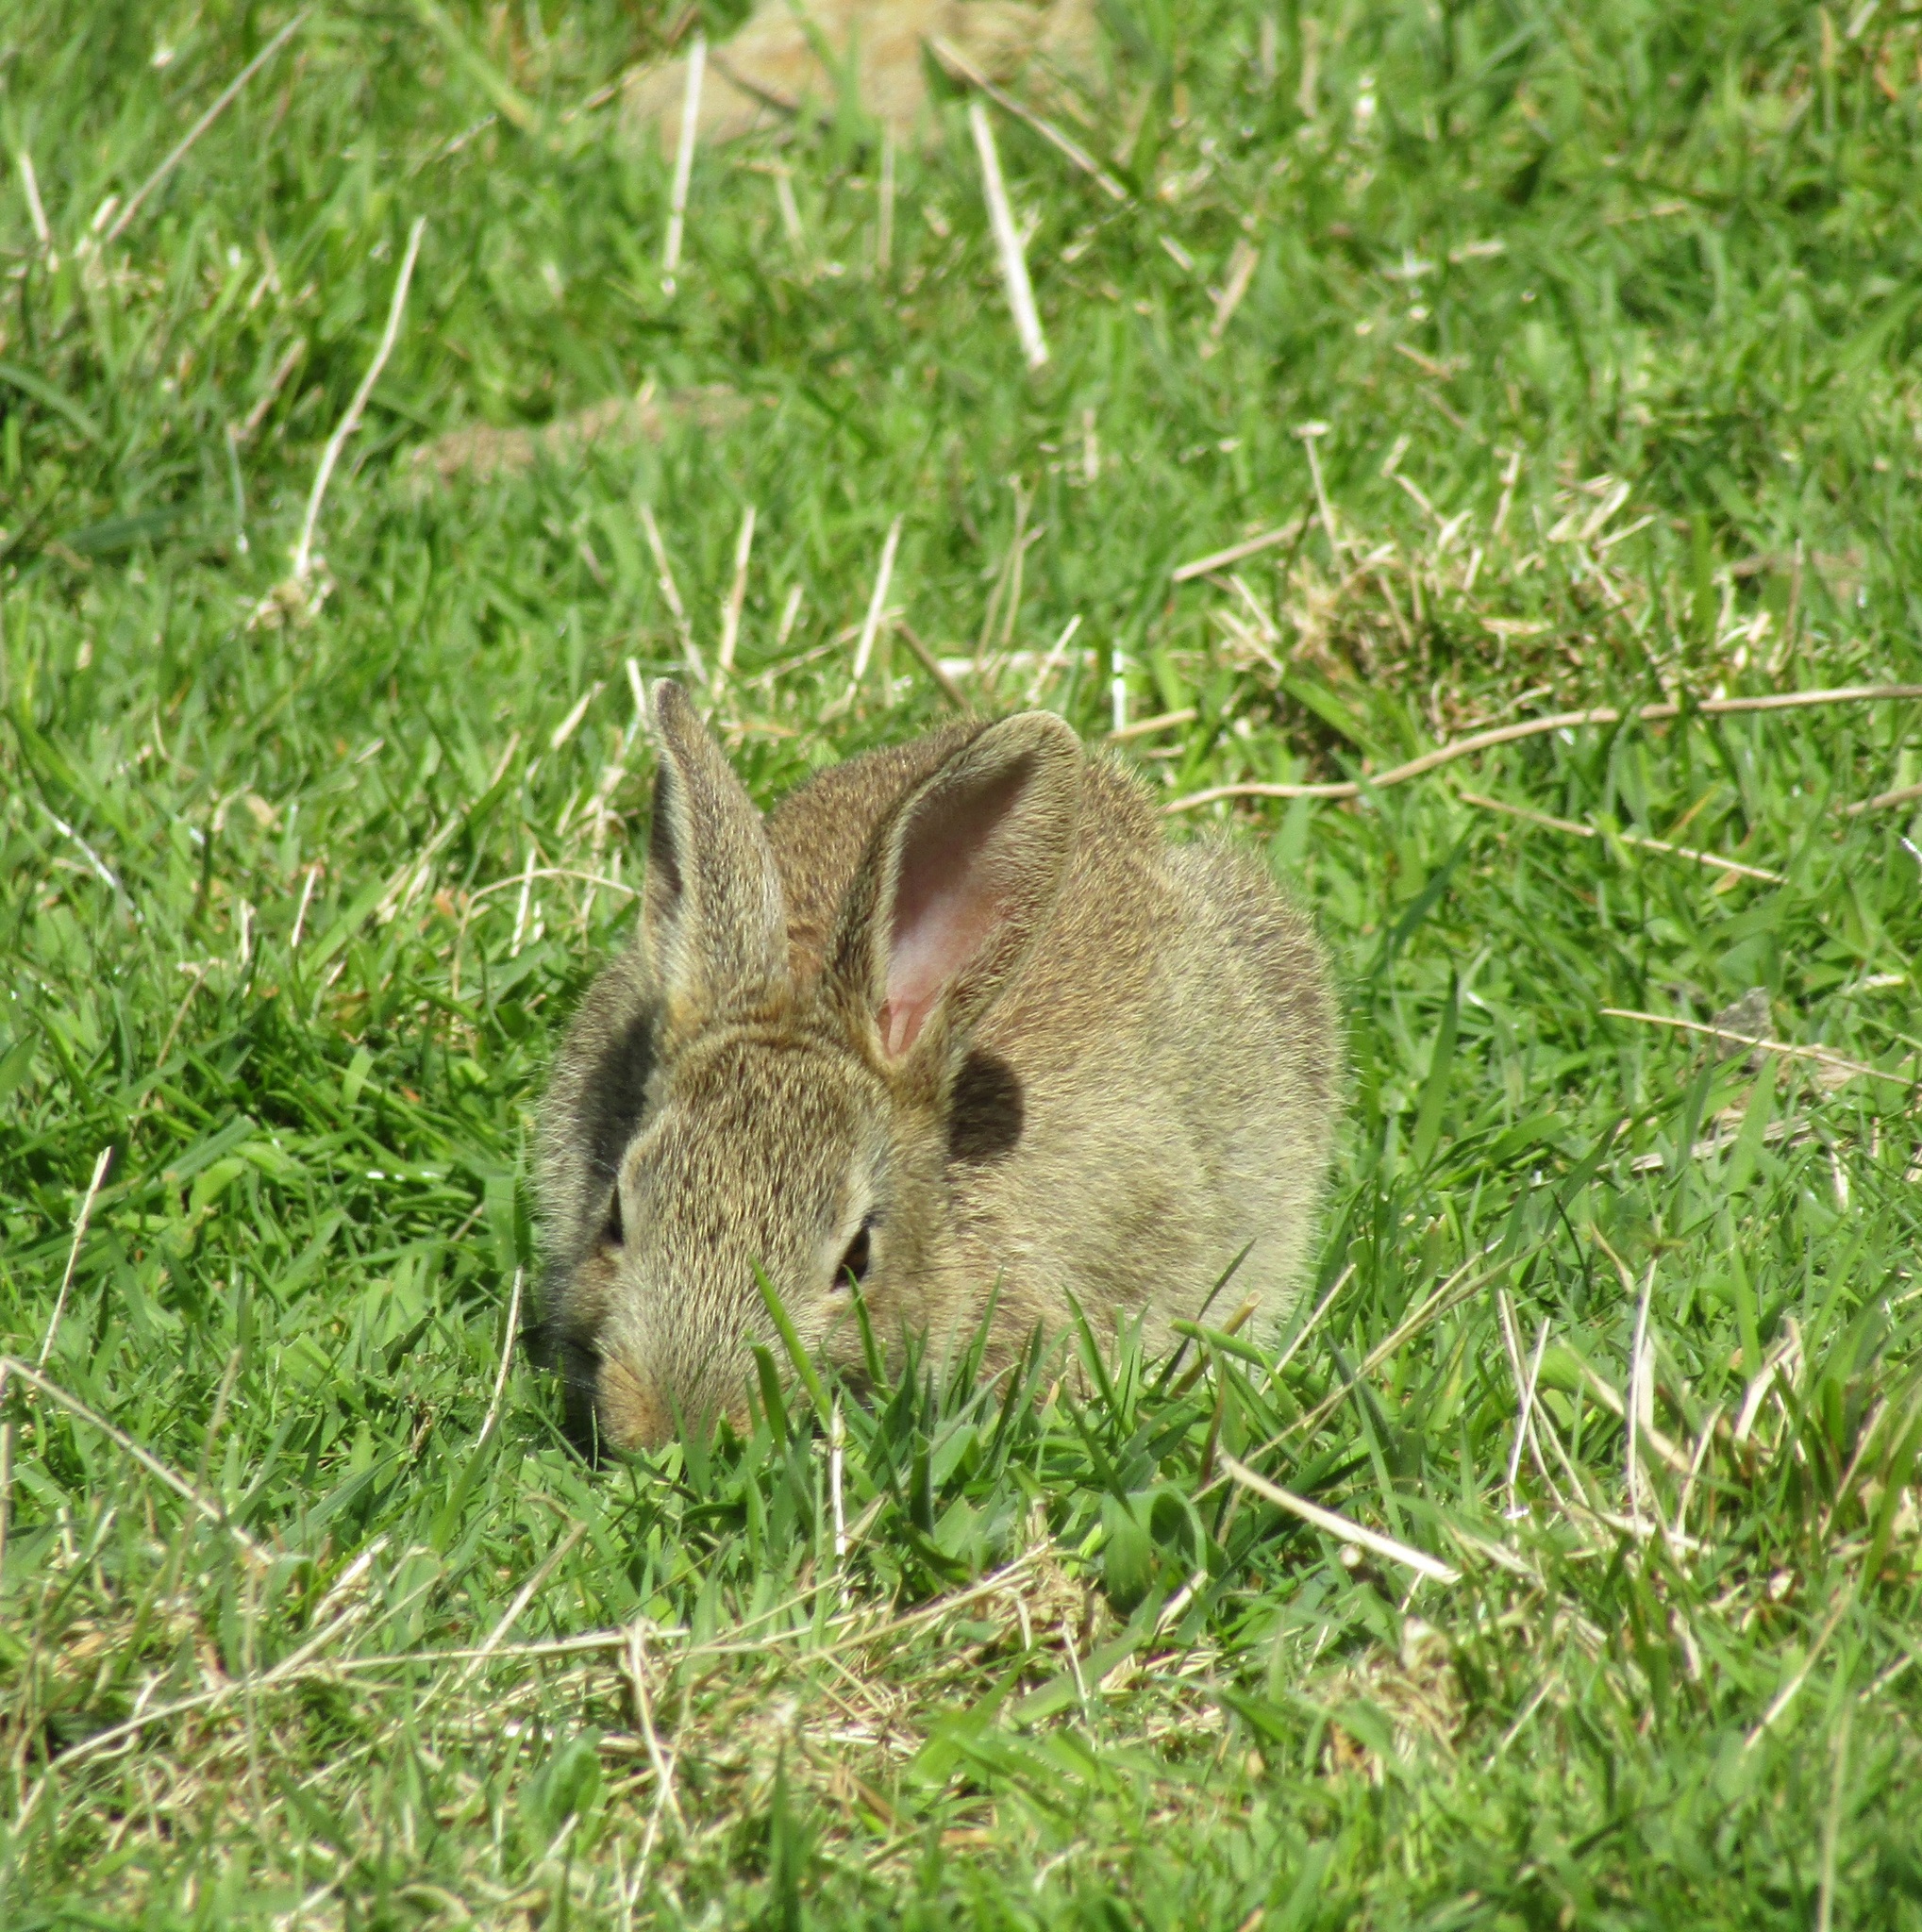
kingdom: Animalia
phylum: Chordata
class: Mammalia
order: Lagomorpha
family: Leporidae
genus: Oryctolagus
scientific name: Oryctolagus cuniculus
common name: European rabbit
